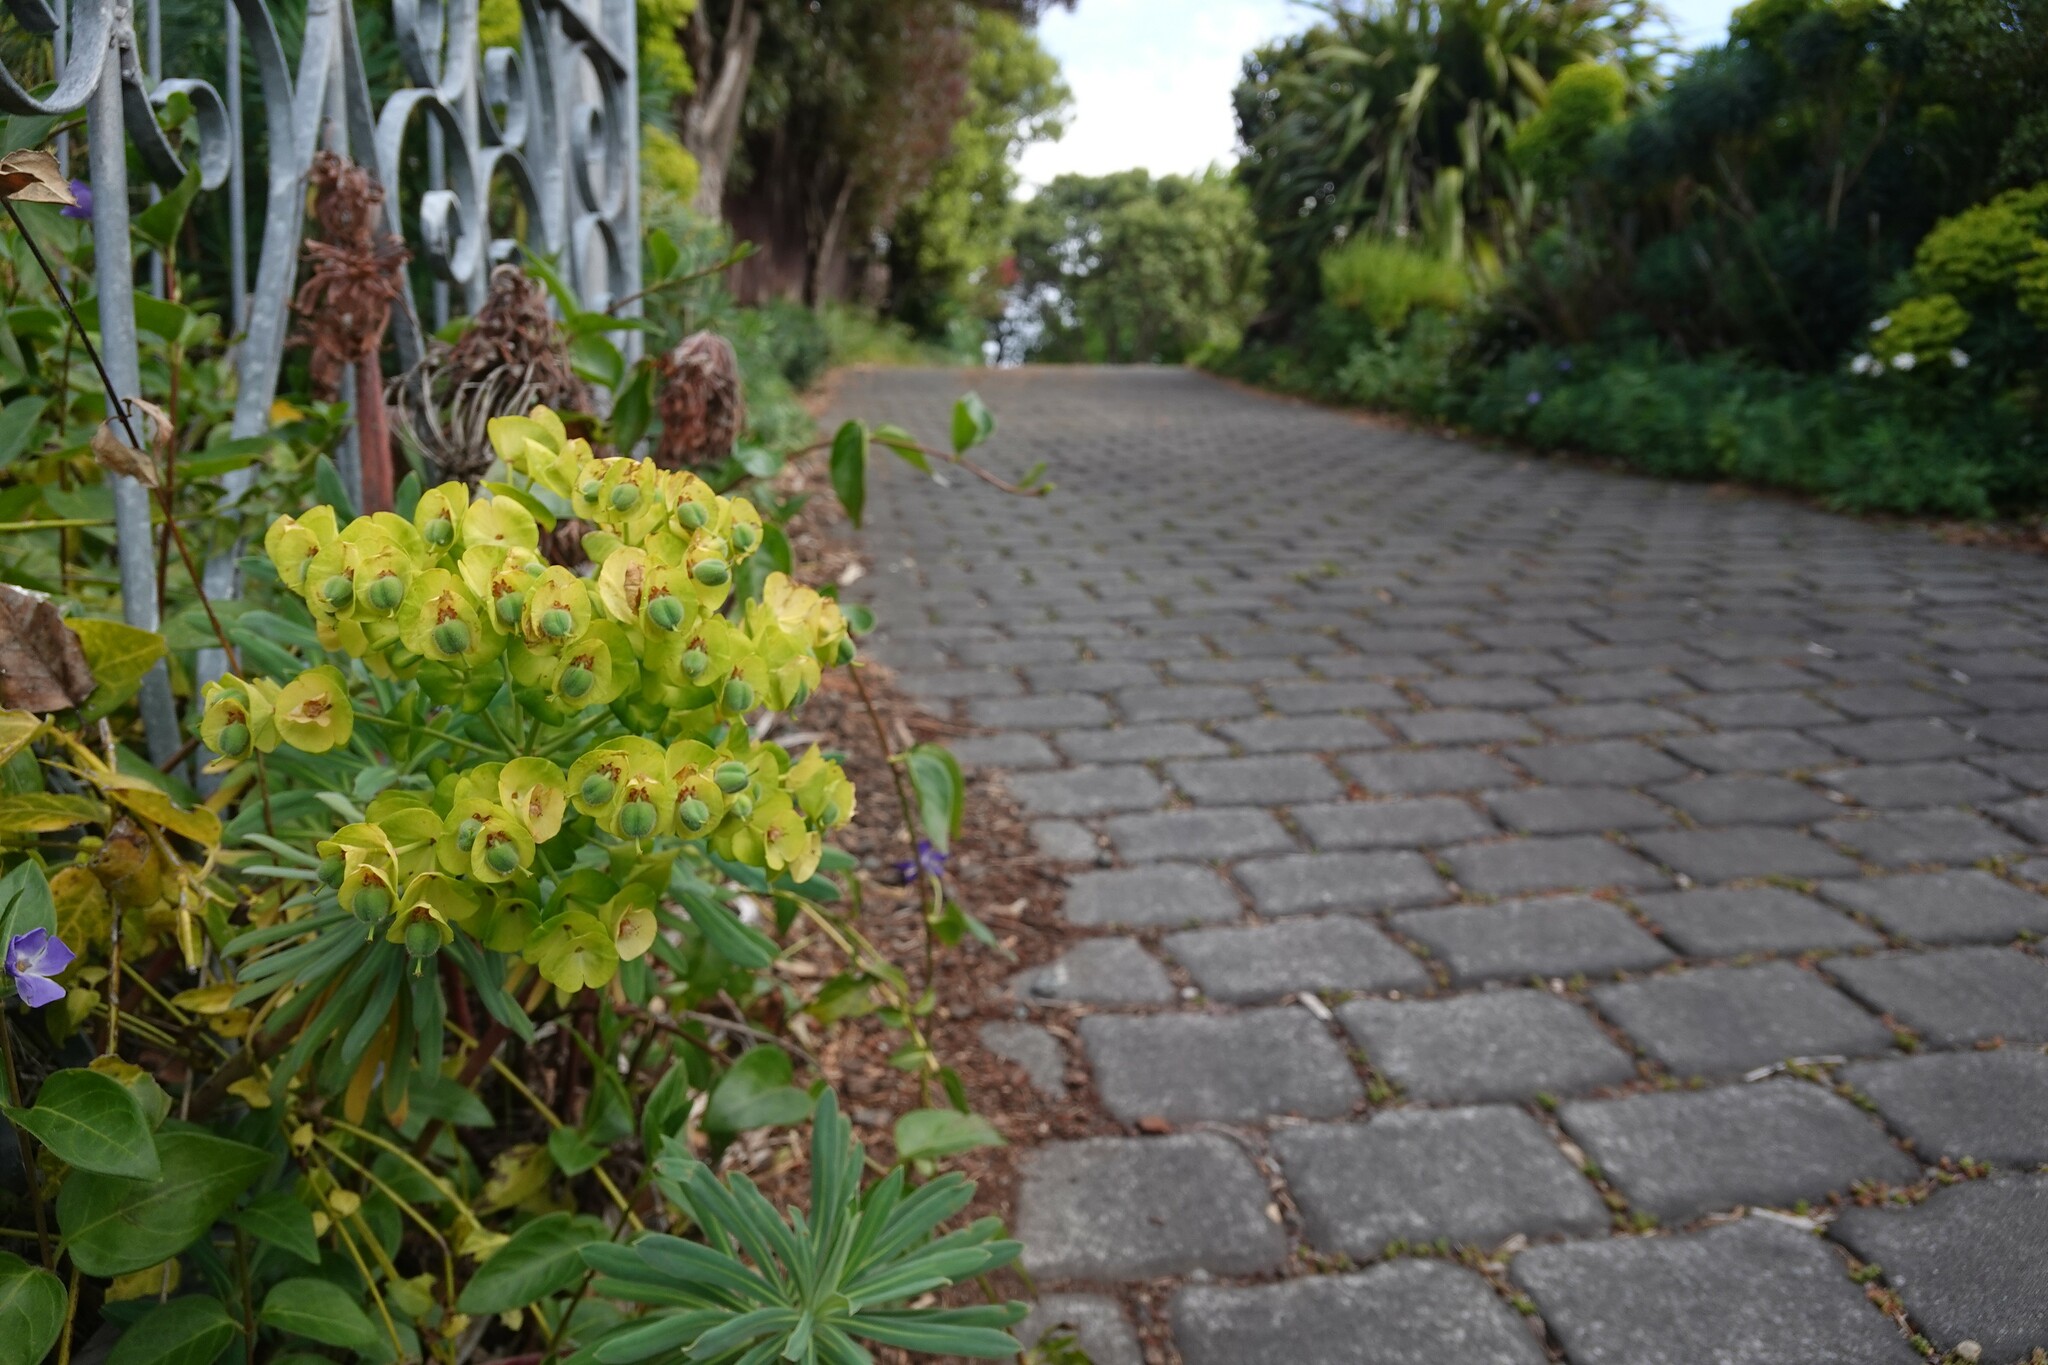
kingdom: Plantae
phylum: Tracheophyta
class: Magnoliopsida
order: Malpighiales
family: Euphorbiaceae
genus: Euphorbia
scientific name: Euphorbia characias
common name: Mediterranean spurge
